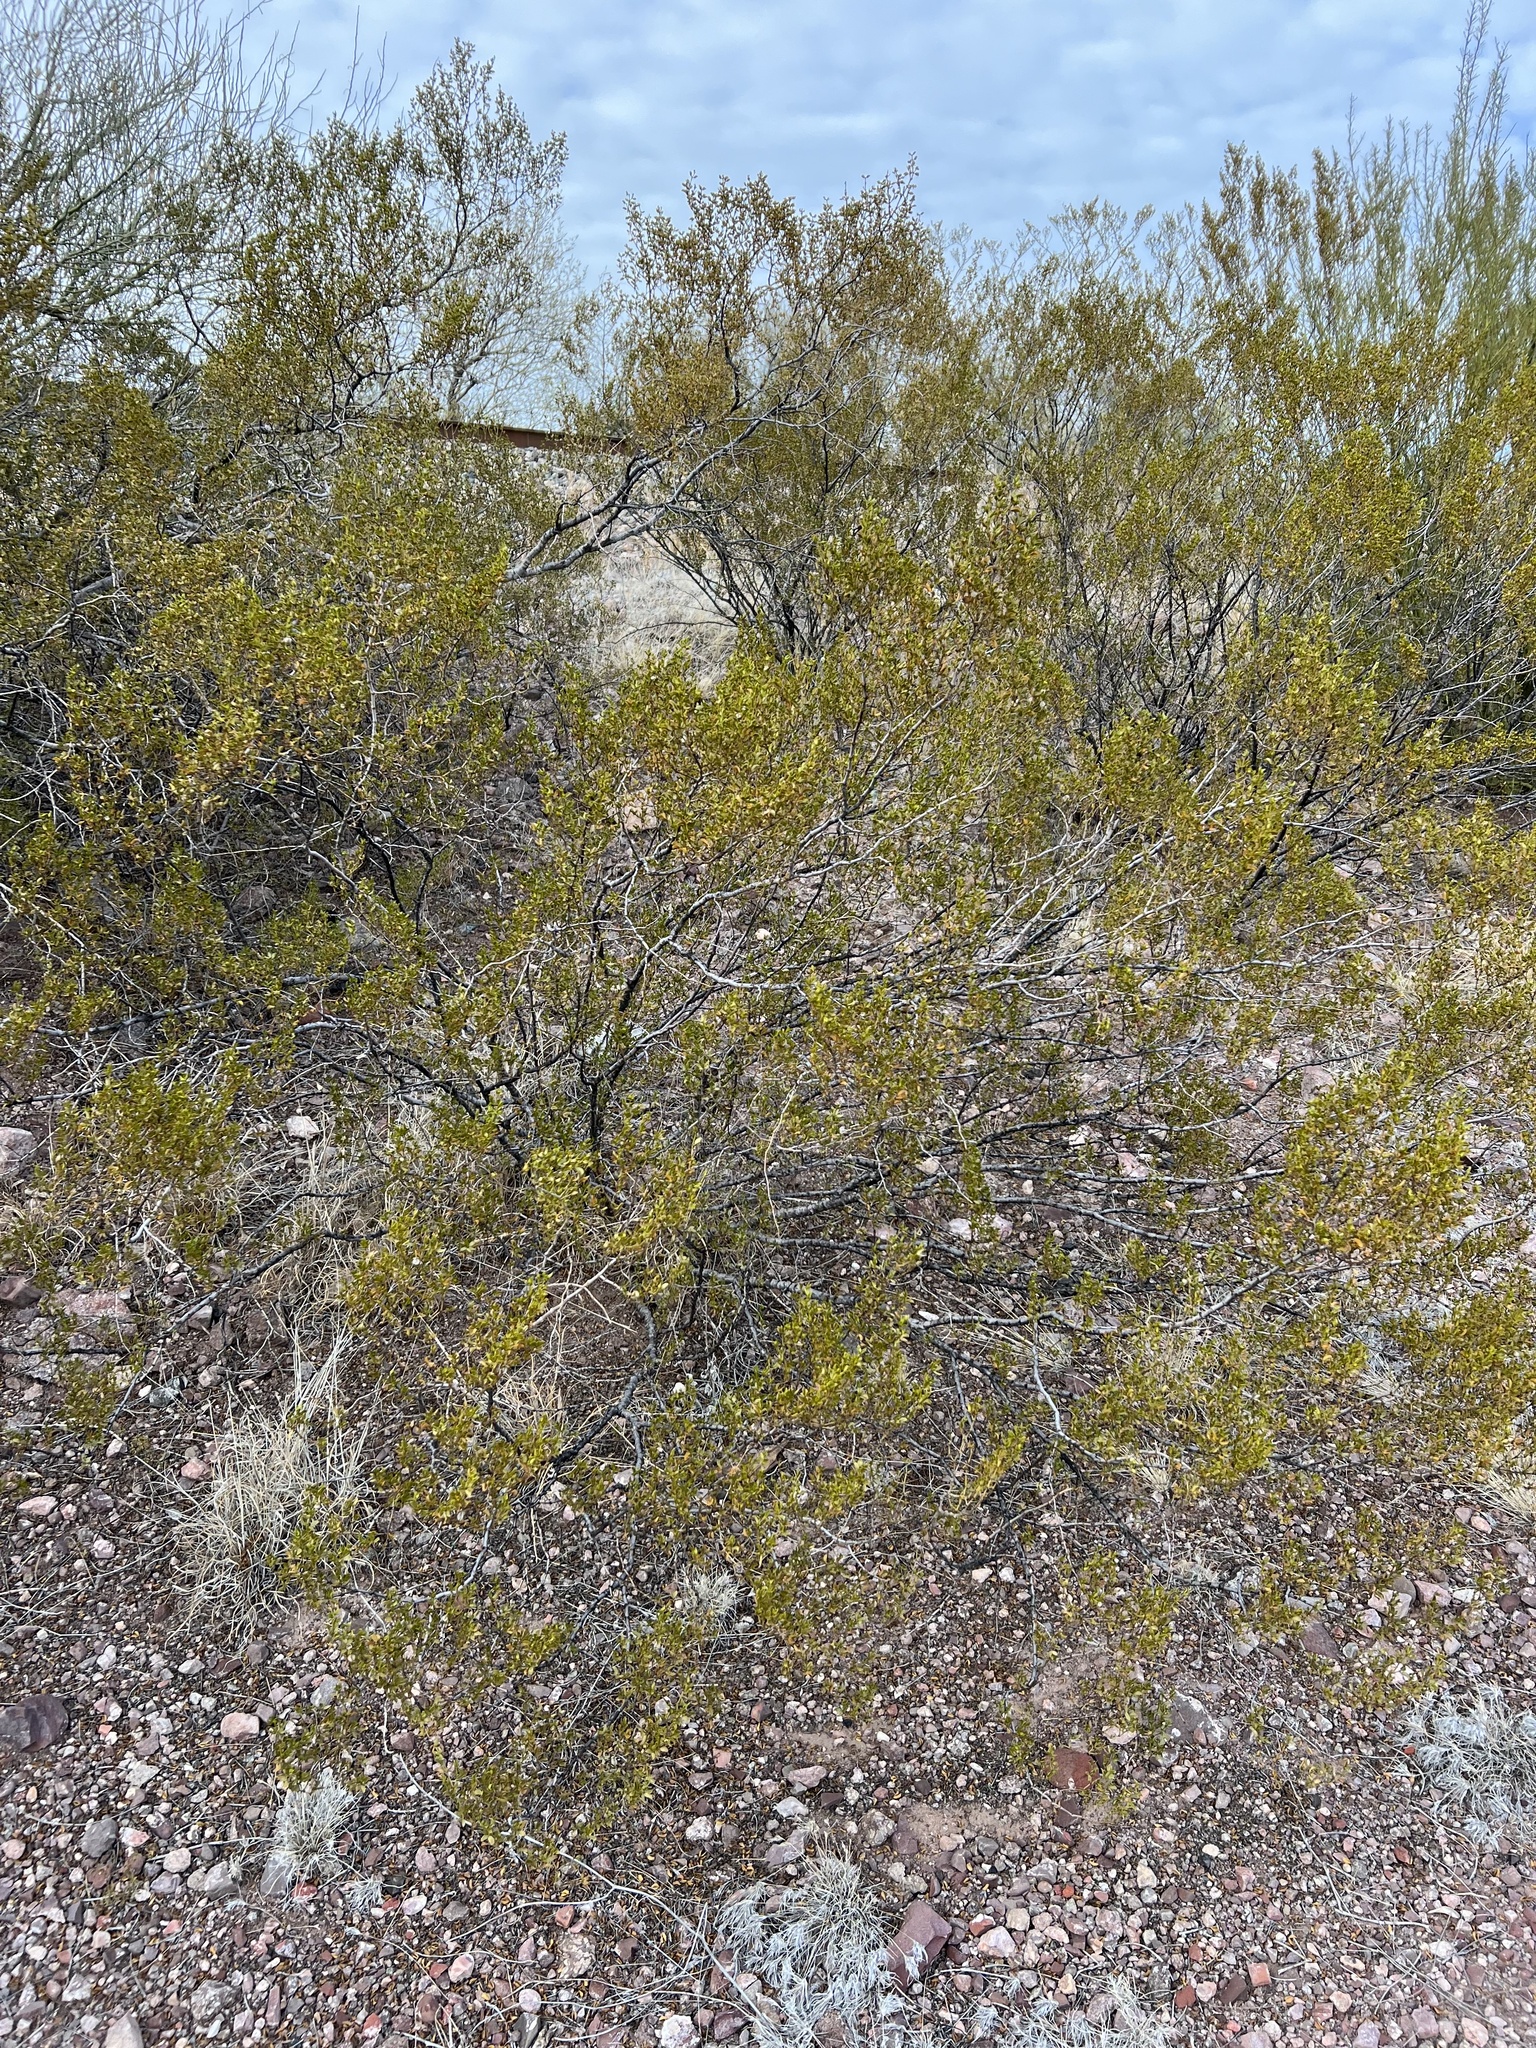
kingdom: Plantae
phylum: Tracheophyta
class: Magnoliopsida
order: Zygophyllales
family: Zygophyllaceae
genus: Larrea
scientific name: Larrea tridentata
